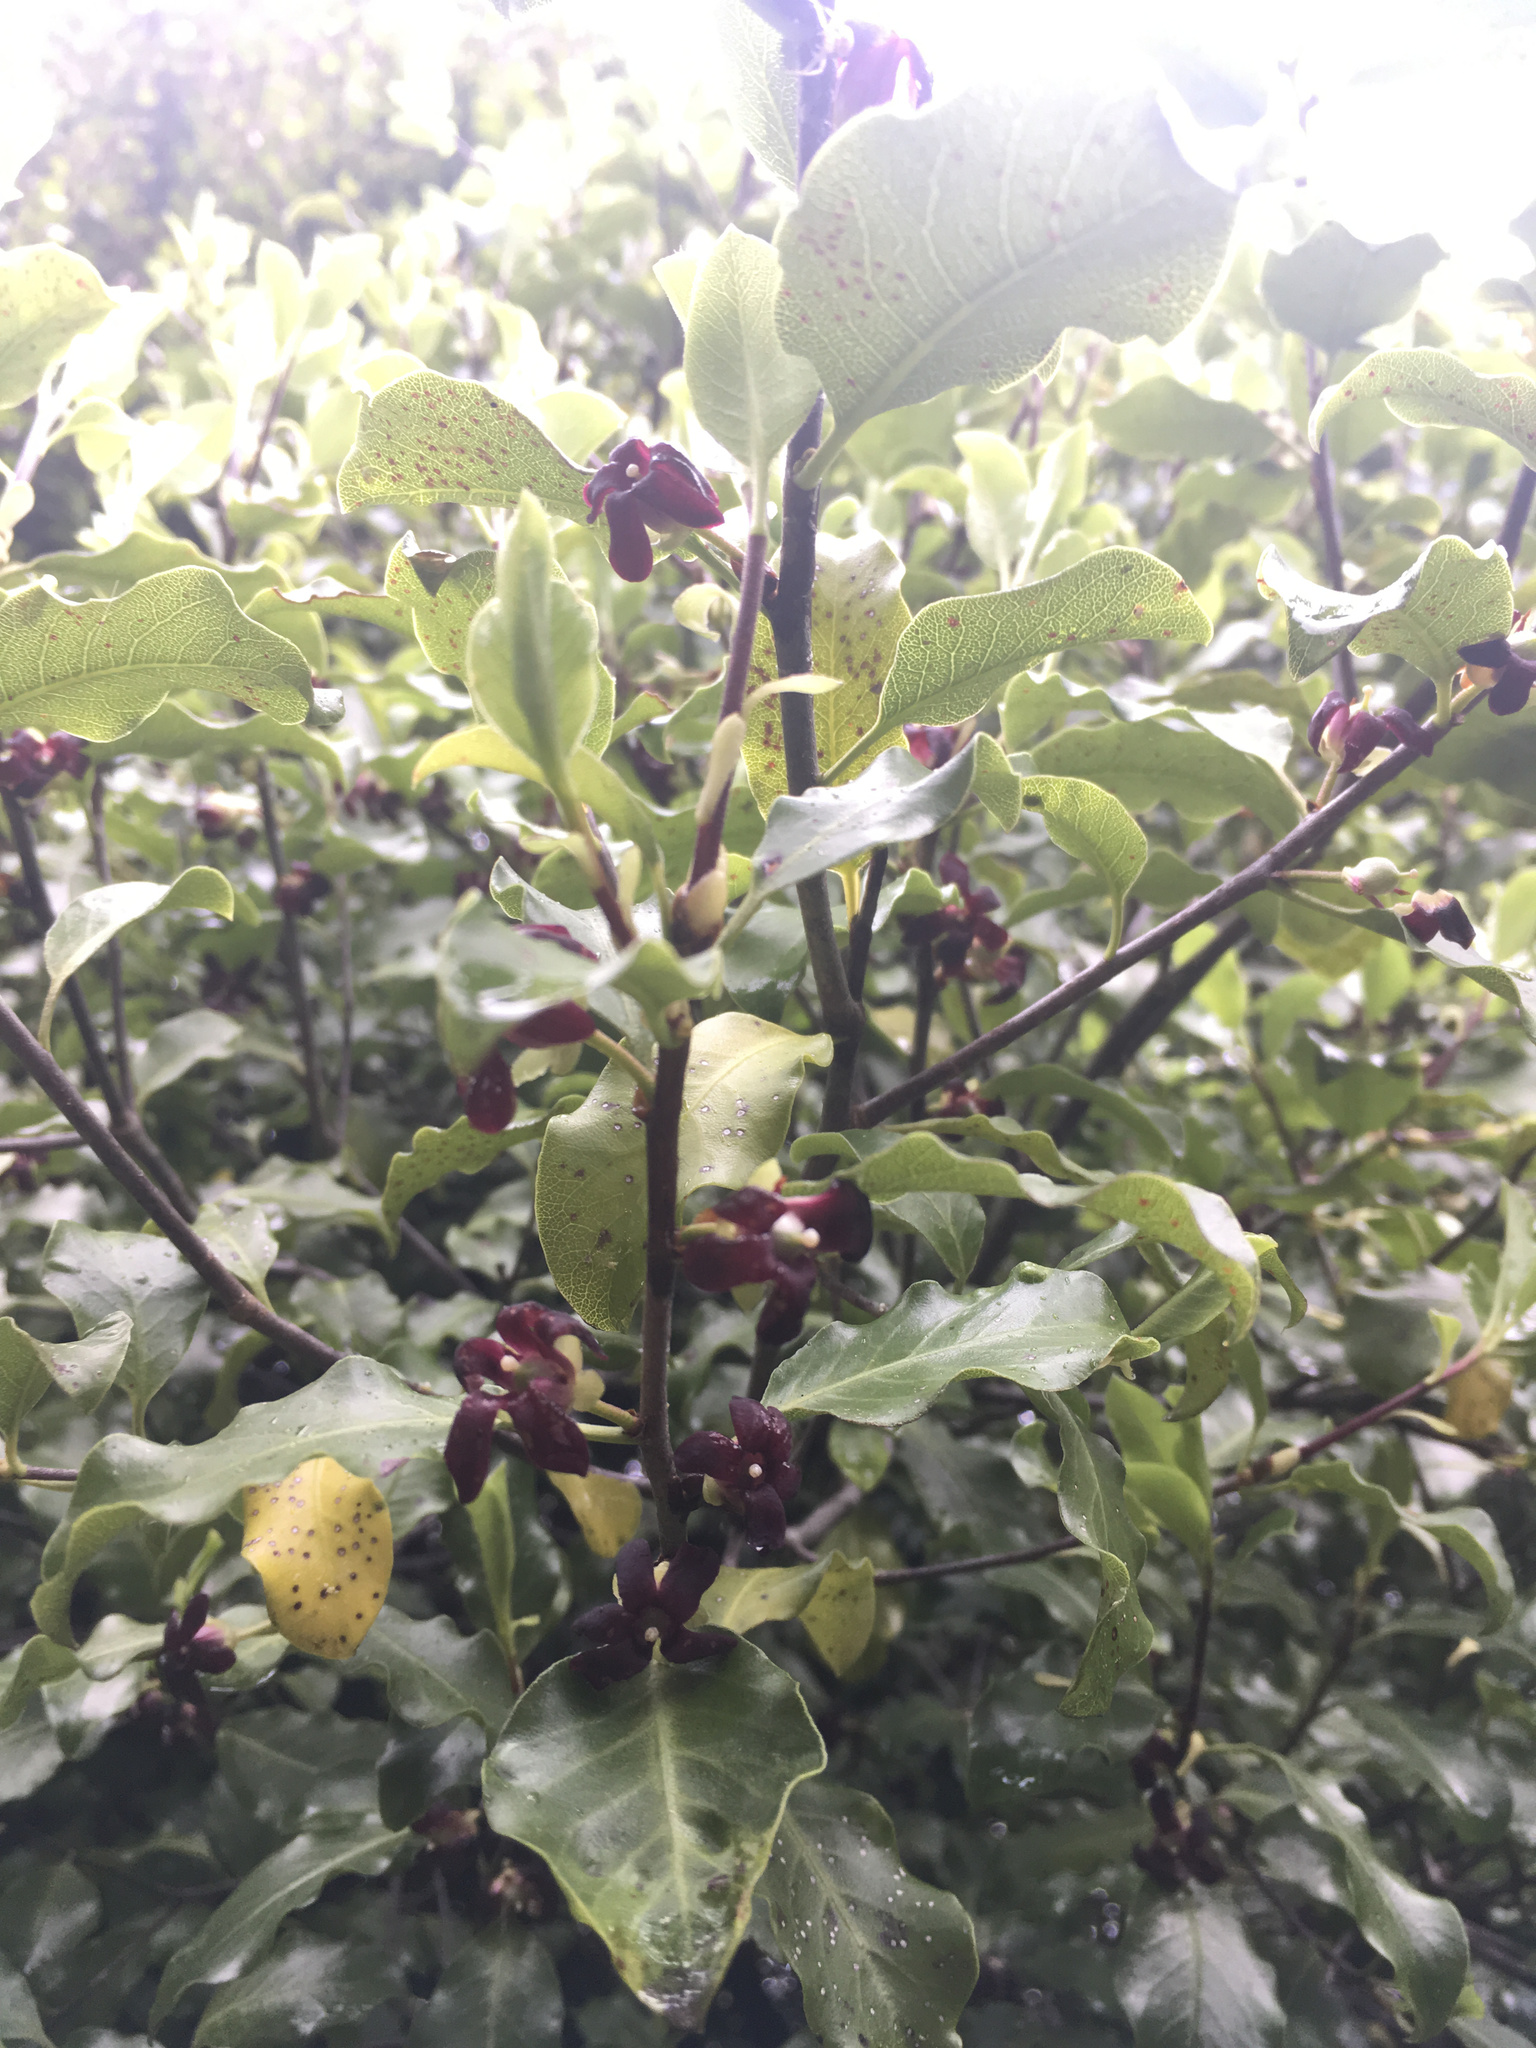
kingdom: Plantae
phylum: Tracheophyta
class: Magnoliopsida
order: Apiales
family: Pittosporaceae
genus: Pittosporum
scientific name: Pittosporum tenuifolium
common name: Kohuhu
